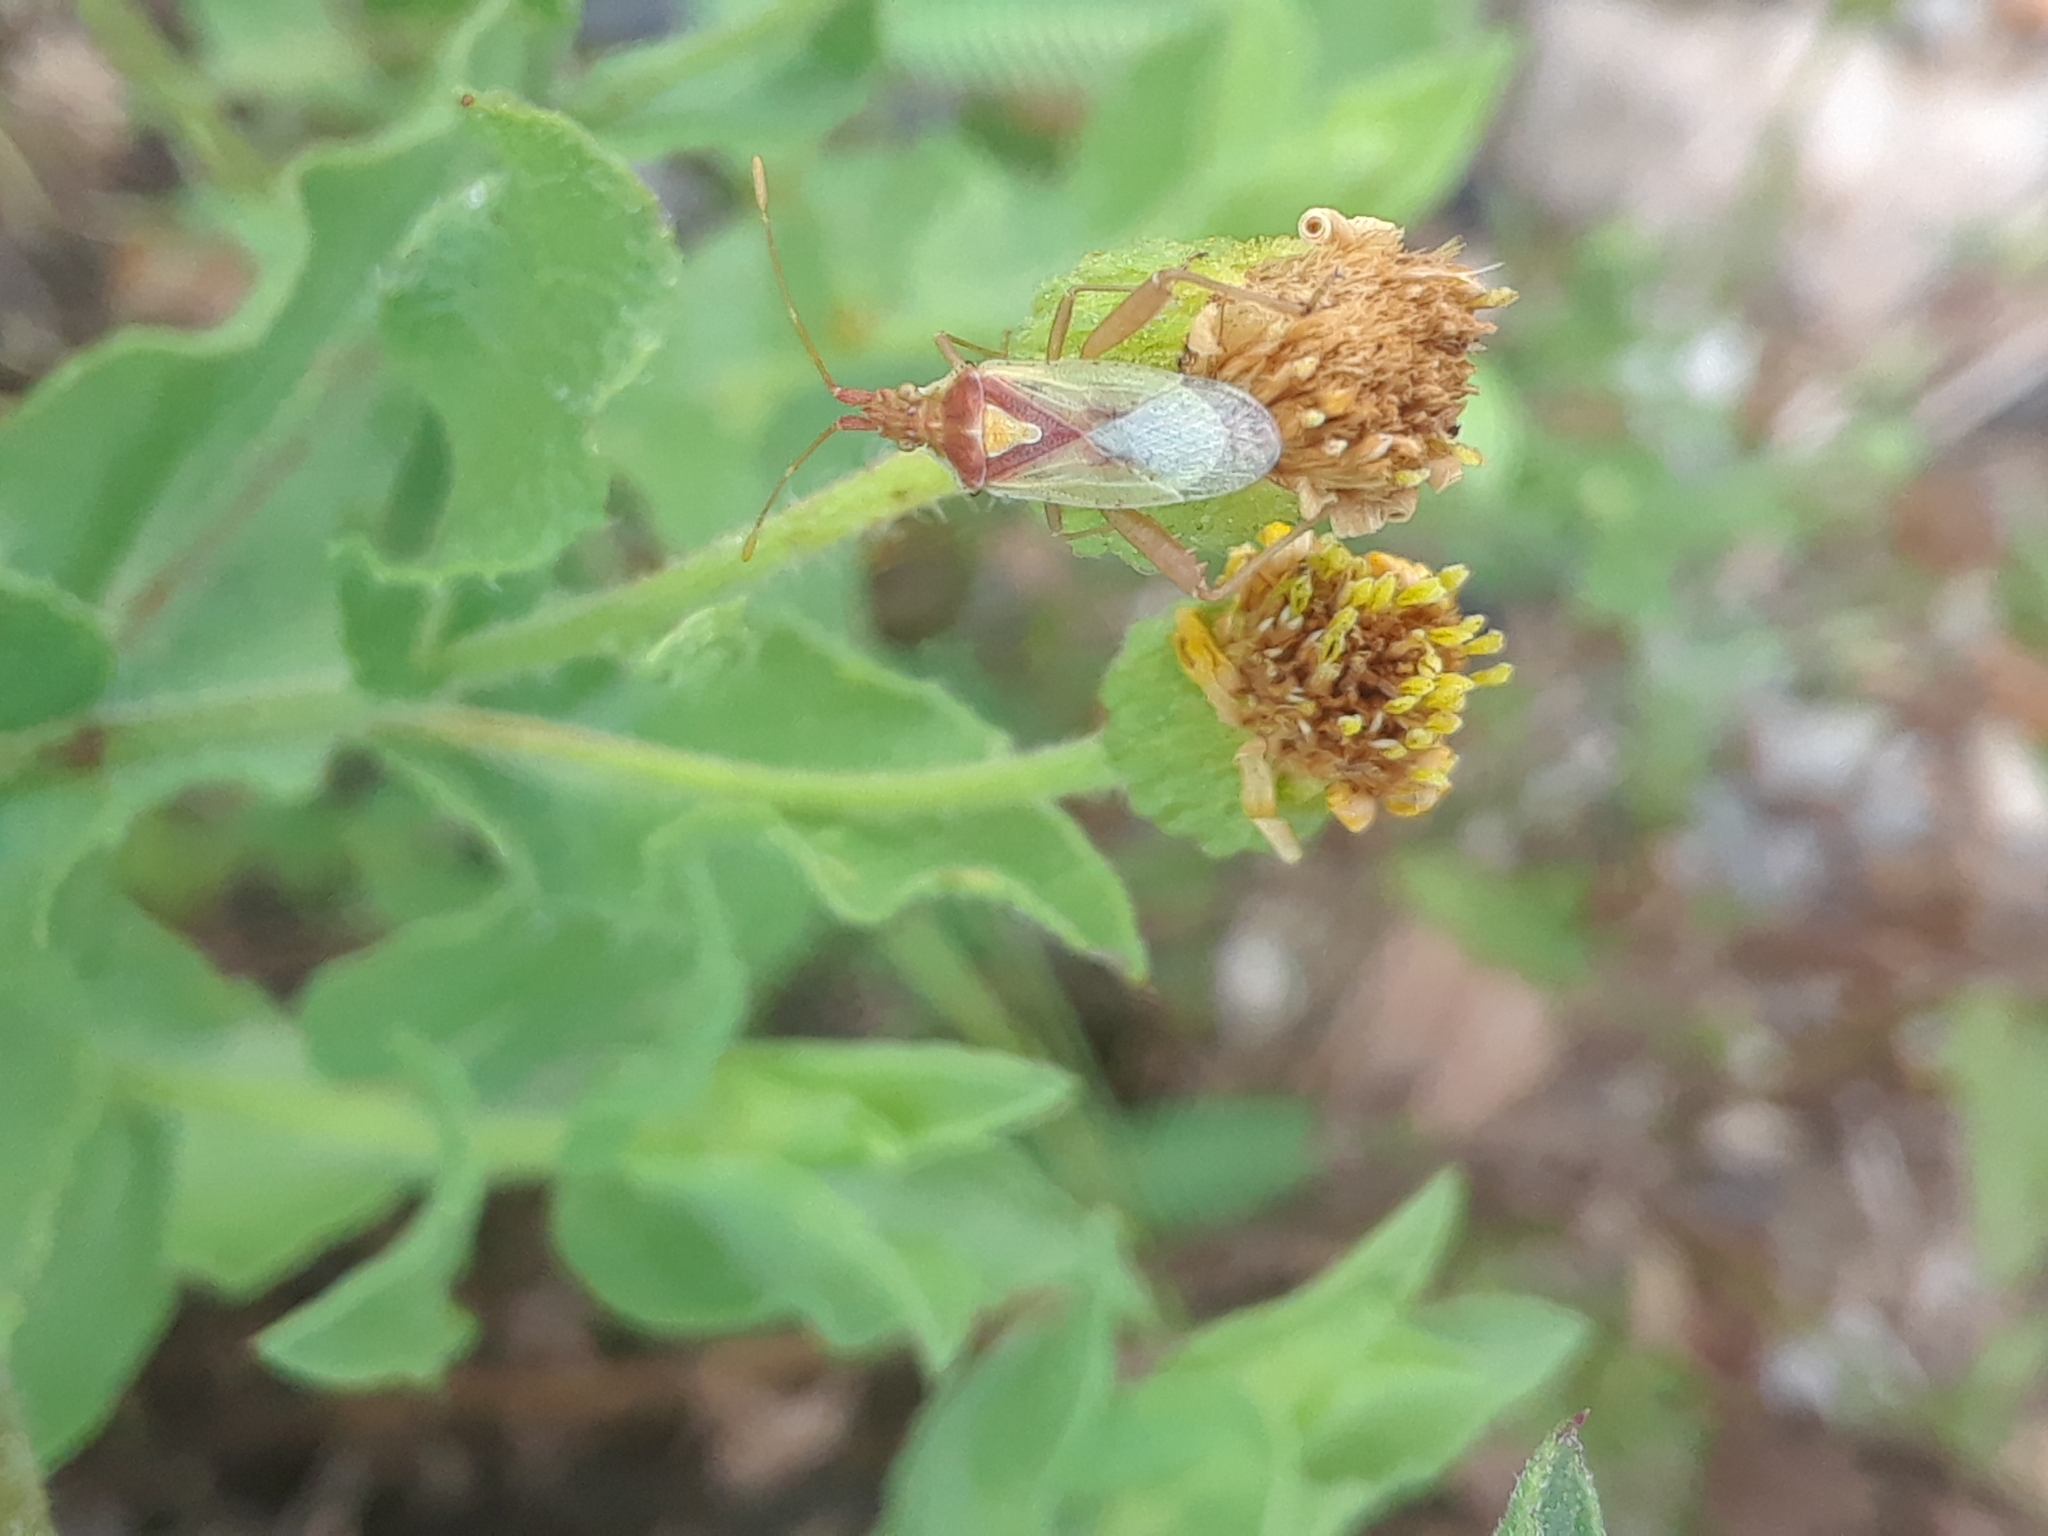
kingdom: Animalia
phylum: Arthropoda
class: Insecta
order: Hemiptera
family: Rhopalidae
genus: Harmostes
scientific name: Harmostes reflexulus
